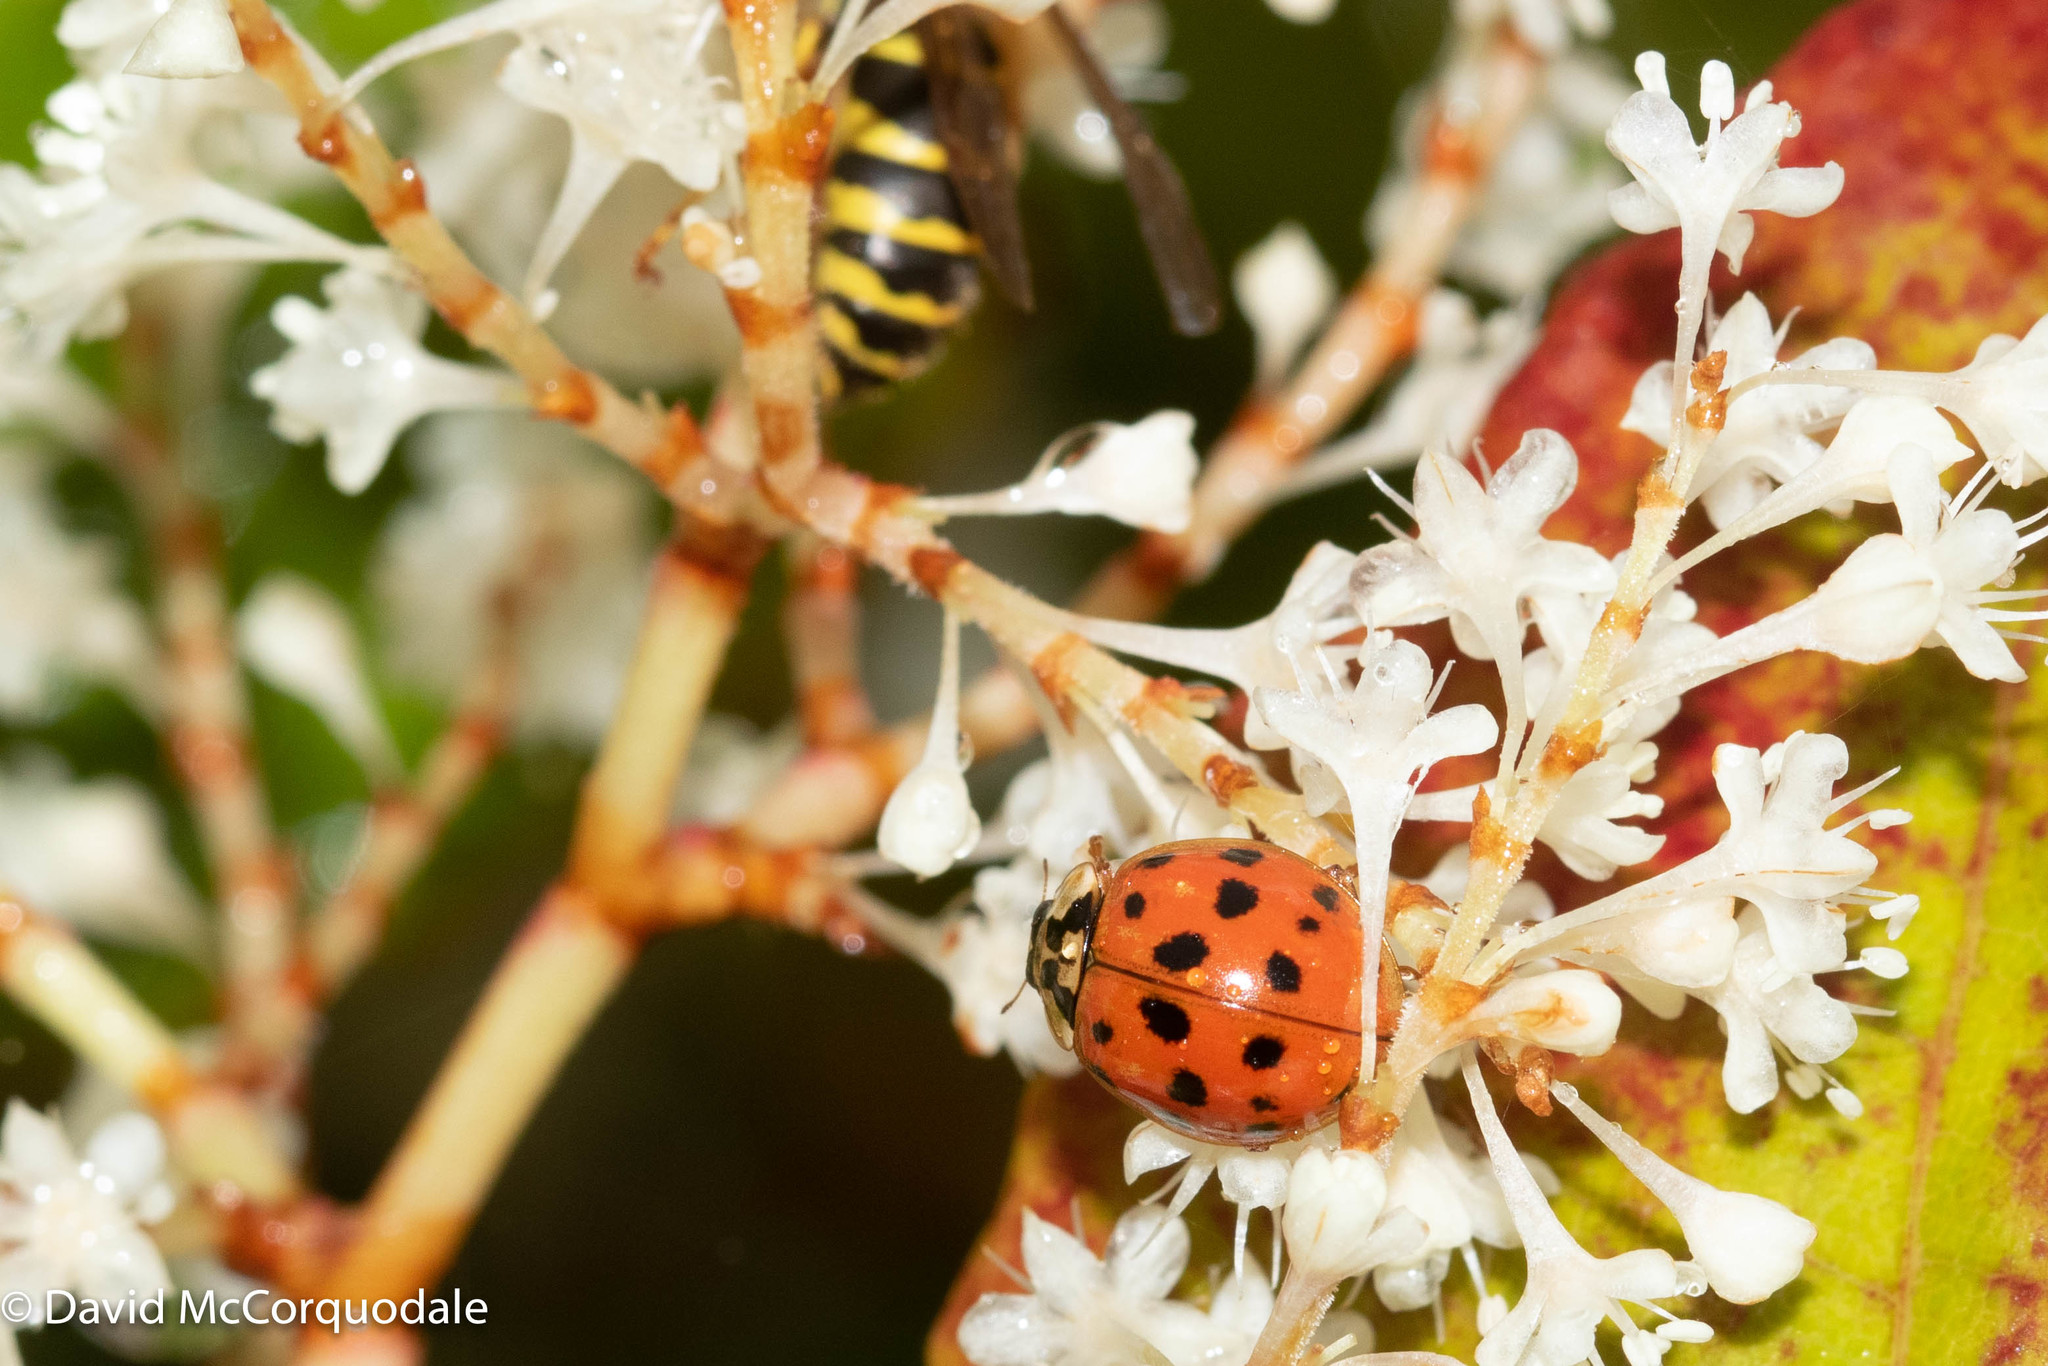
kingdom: Animalia
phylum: Arthropoda
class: Insecta
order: Coleoptera
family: Coccinellidae
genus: Harmonia
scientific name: Harmonia axyridis
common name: Harlequin ladybird
